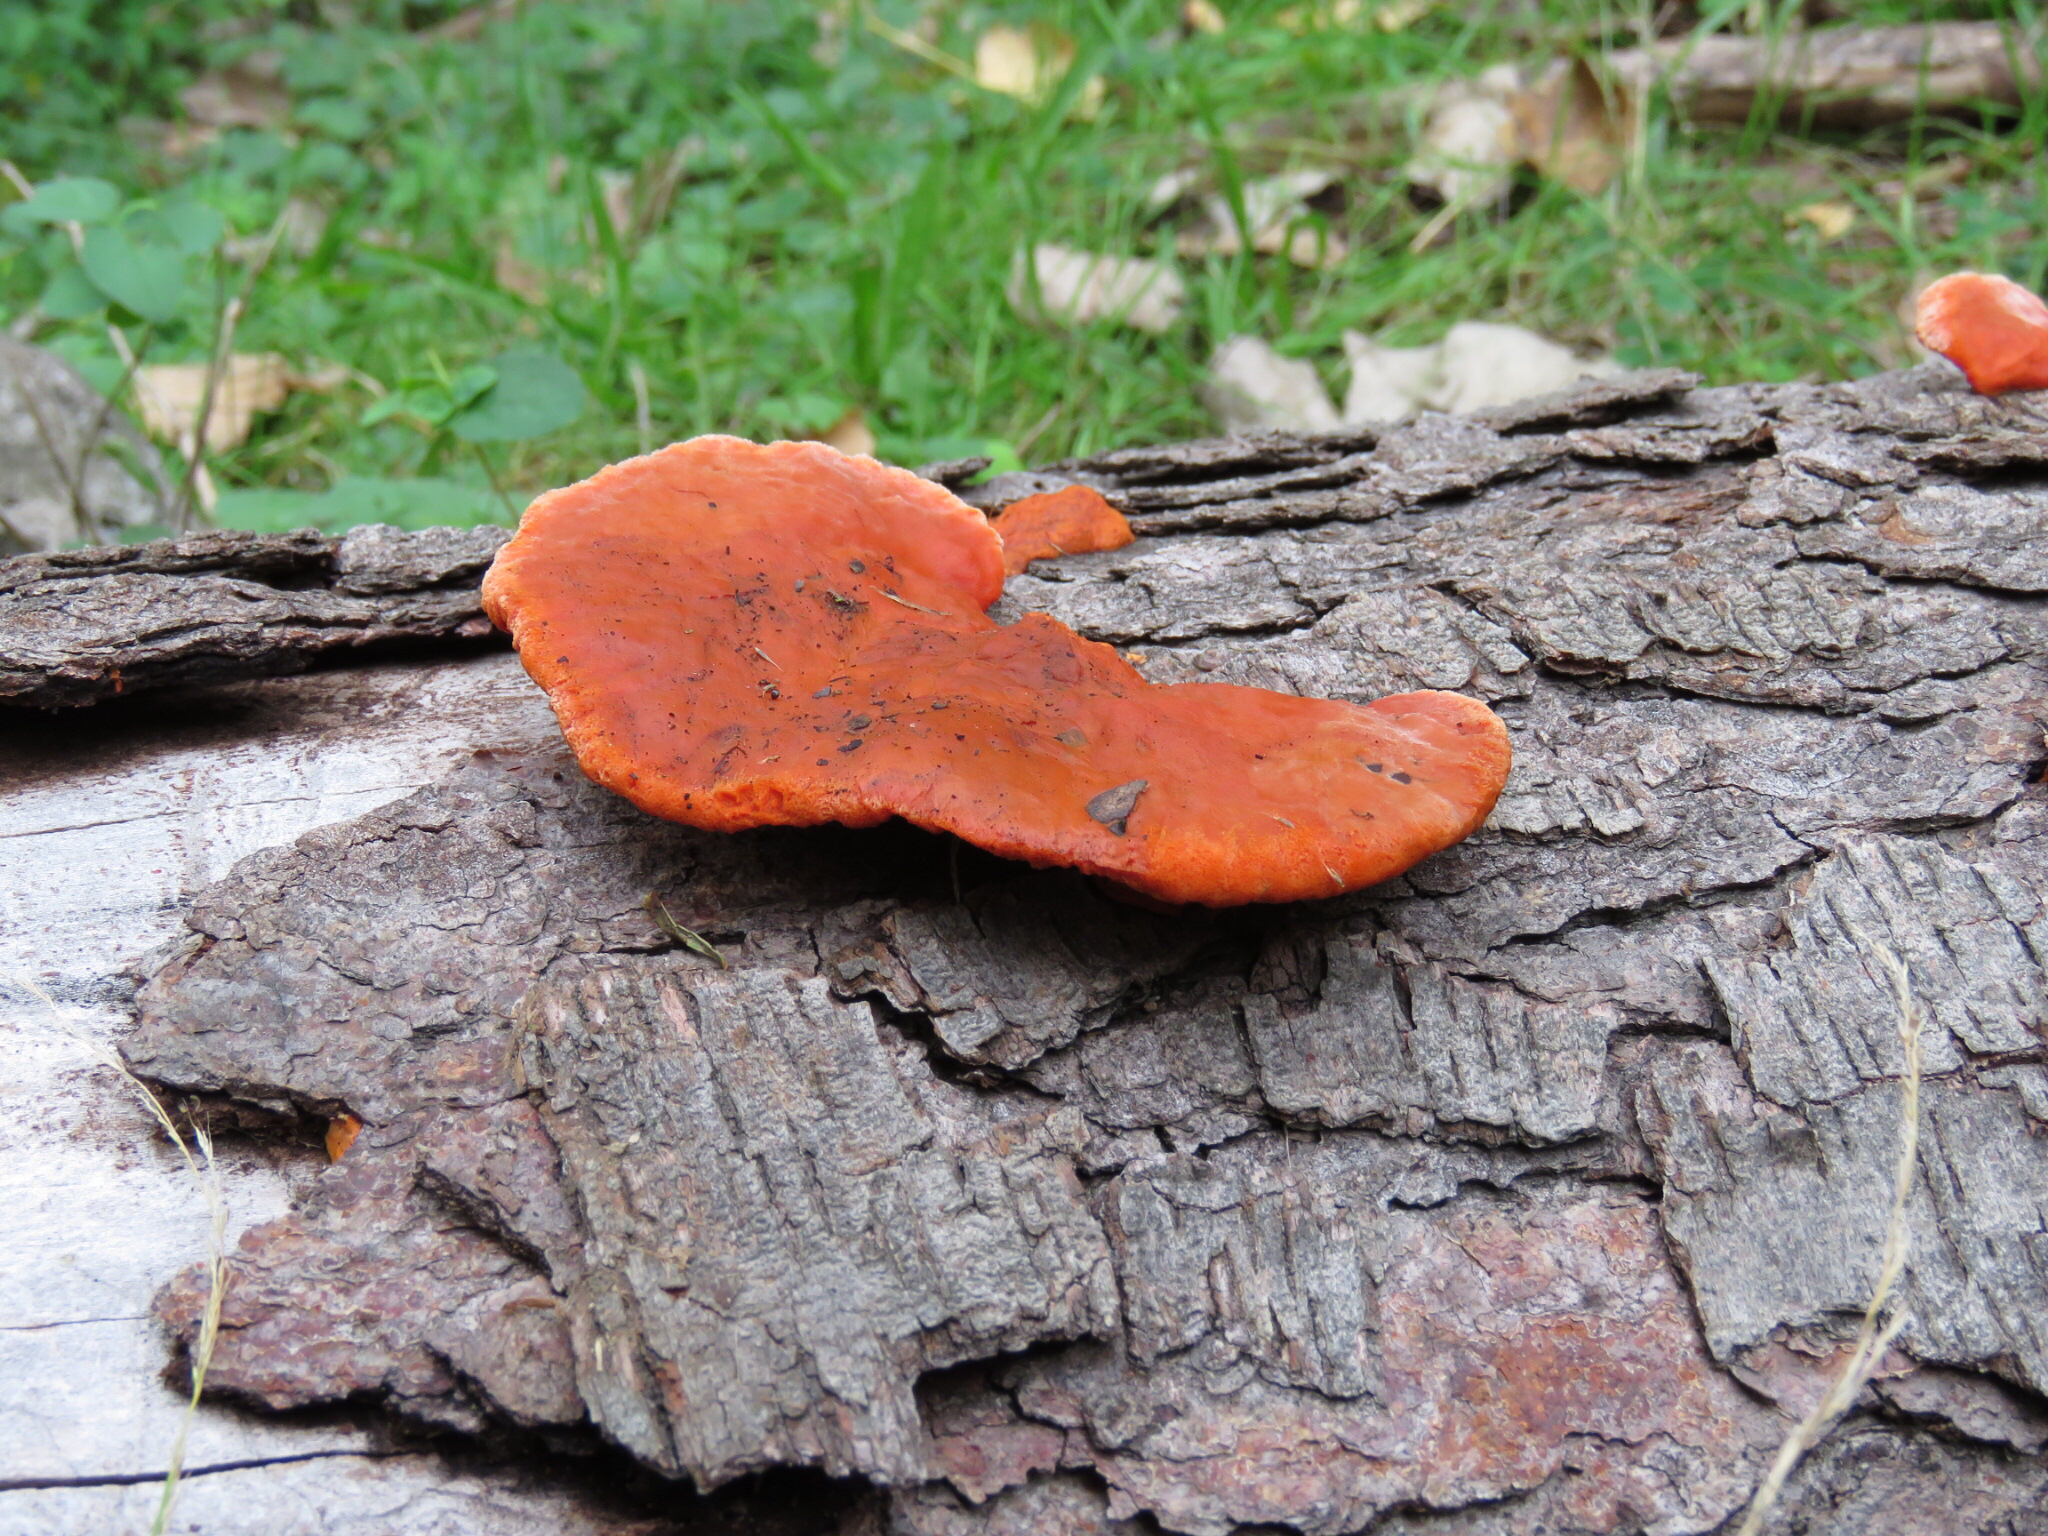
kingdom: Fungi
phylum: Basidiomycota
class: Agaricomycetes
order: Polyporales
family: Polyporaceae
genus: Trametes
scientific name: Trametes cinnabarina
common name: Northern cinnabar polypore
